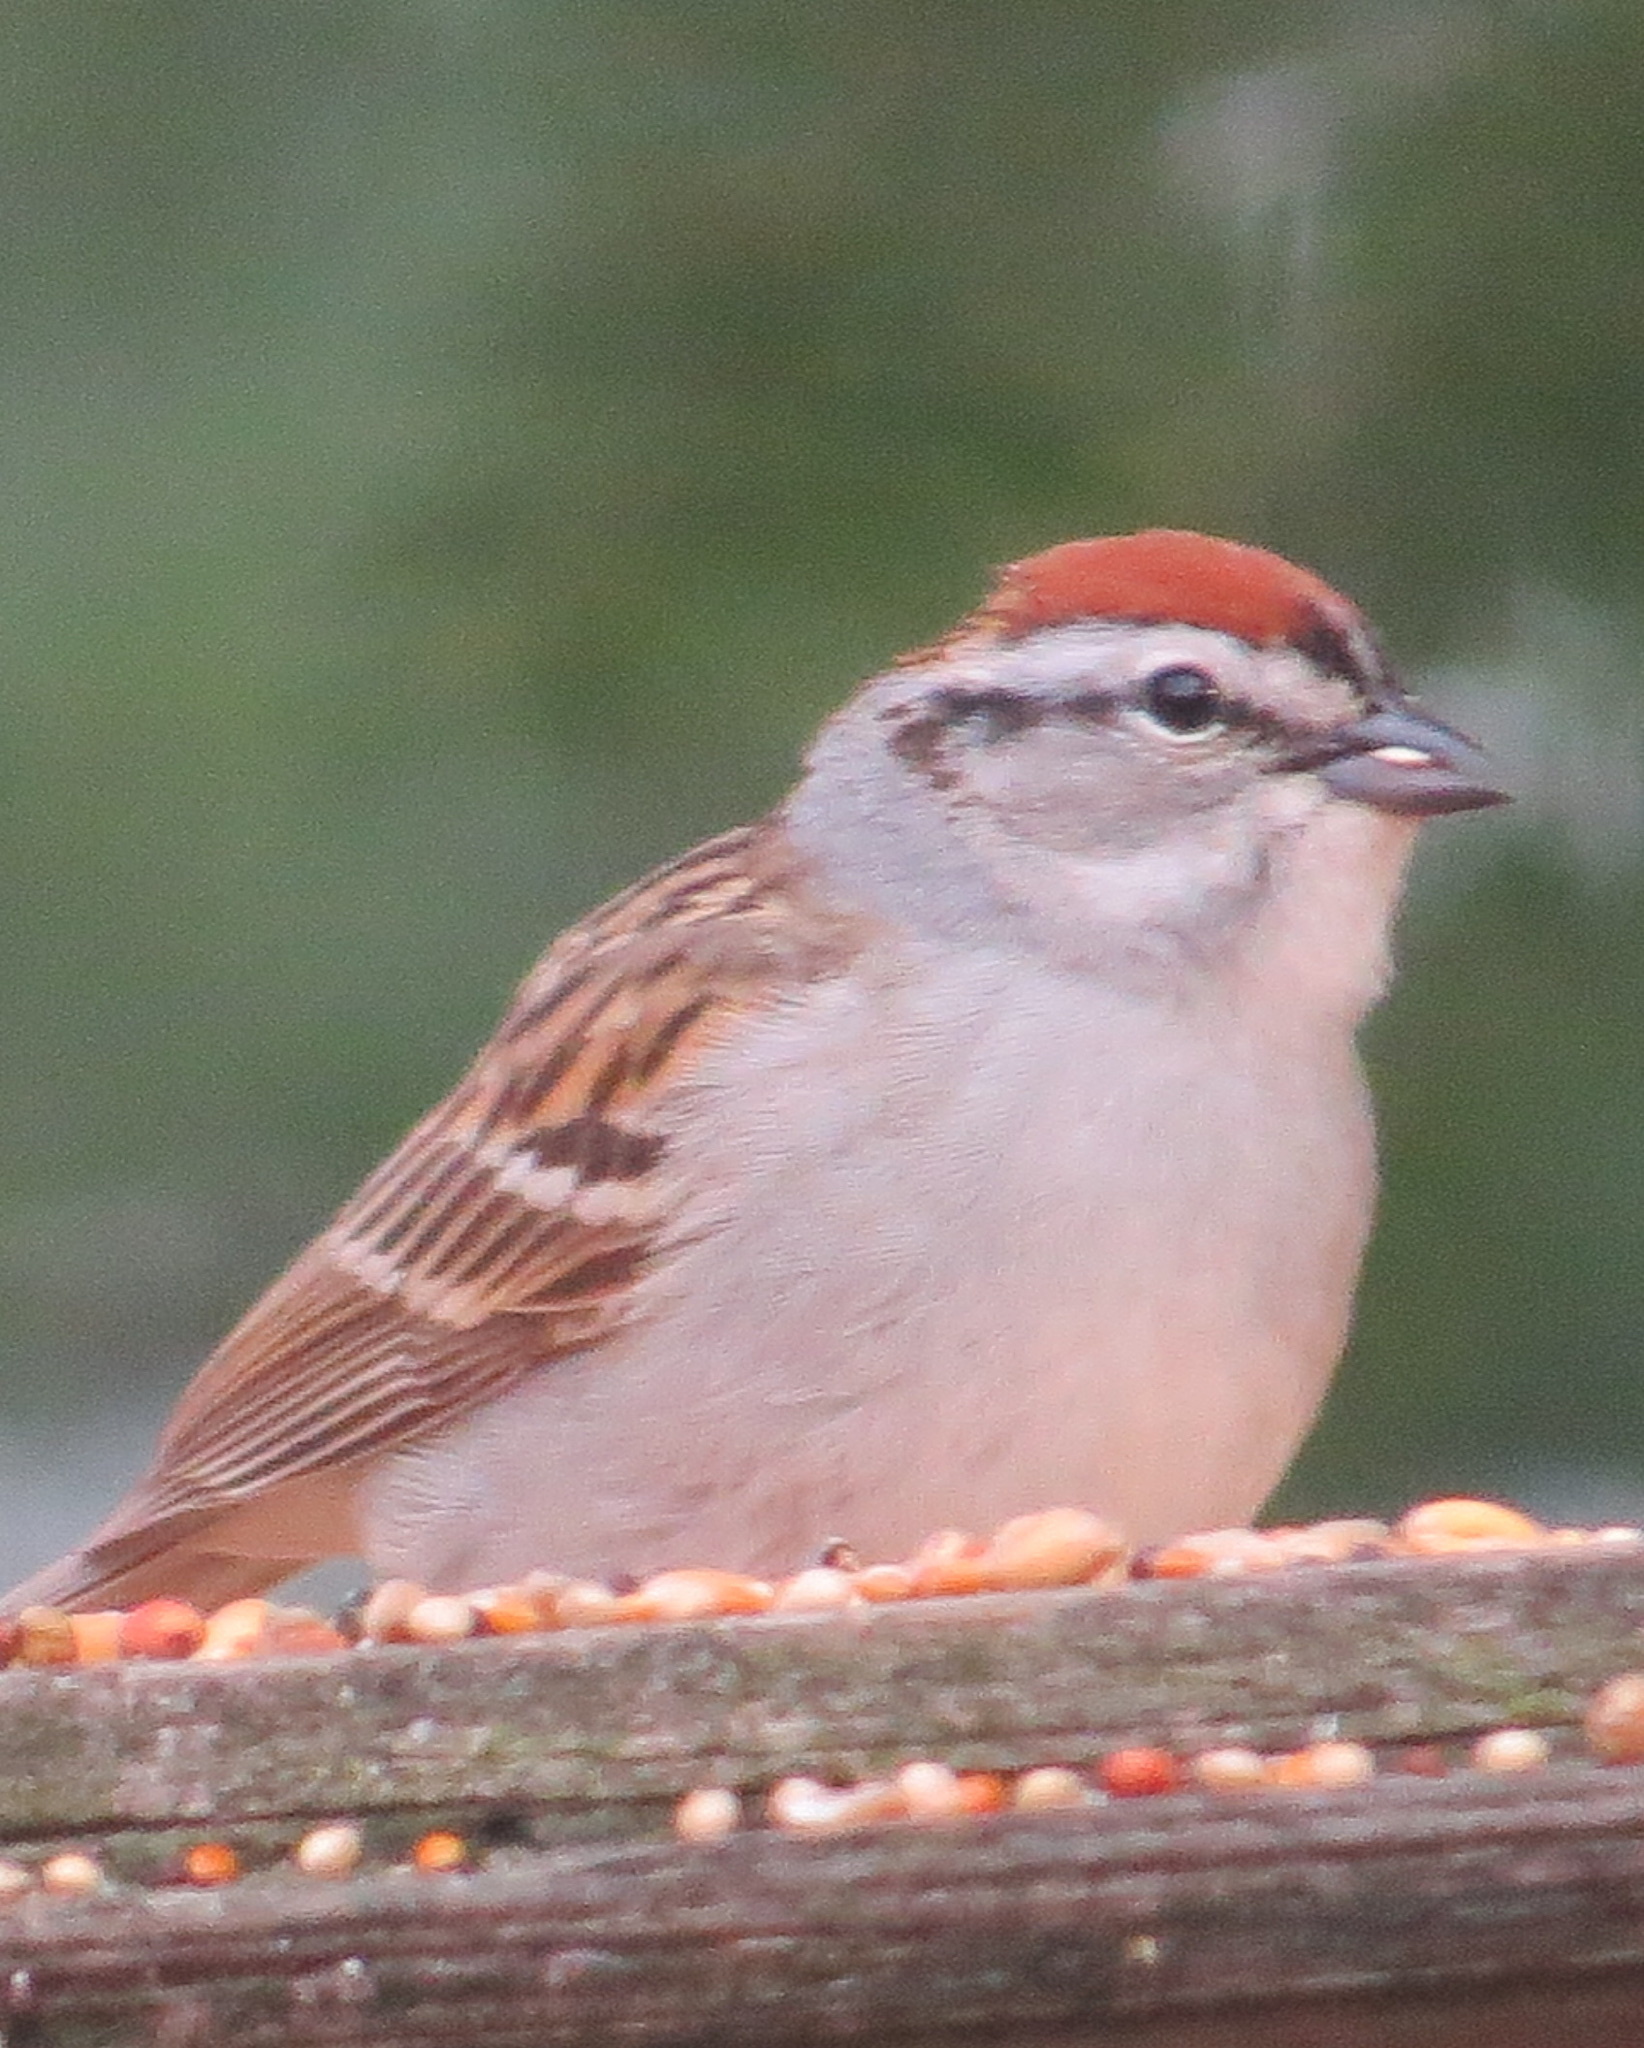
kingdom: Animalia
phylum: Chordata
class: Aves
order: Passeriformes
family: Passerellidae
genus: Spizella
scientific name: Spizella passerina
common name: Chipping sparrow
